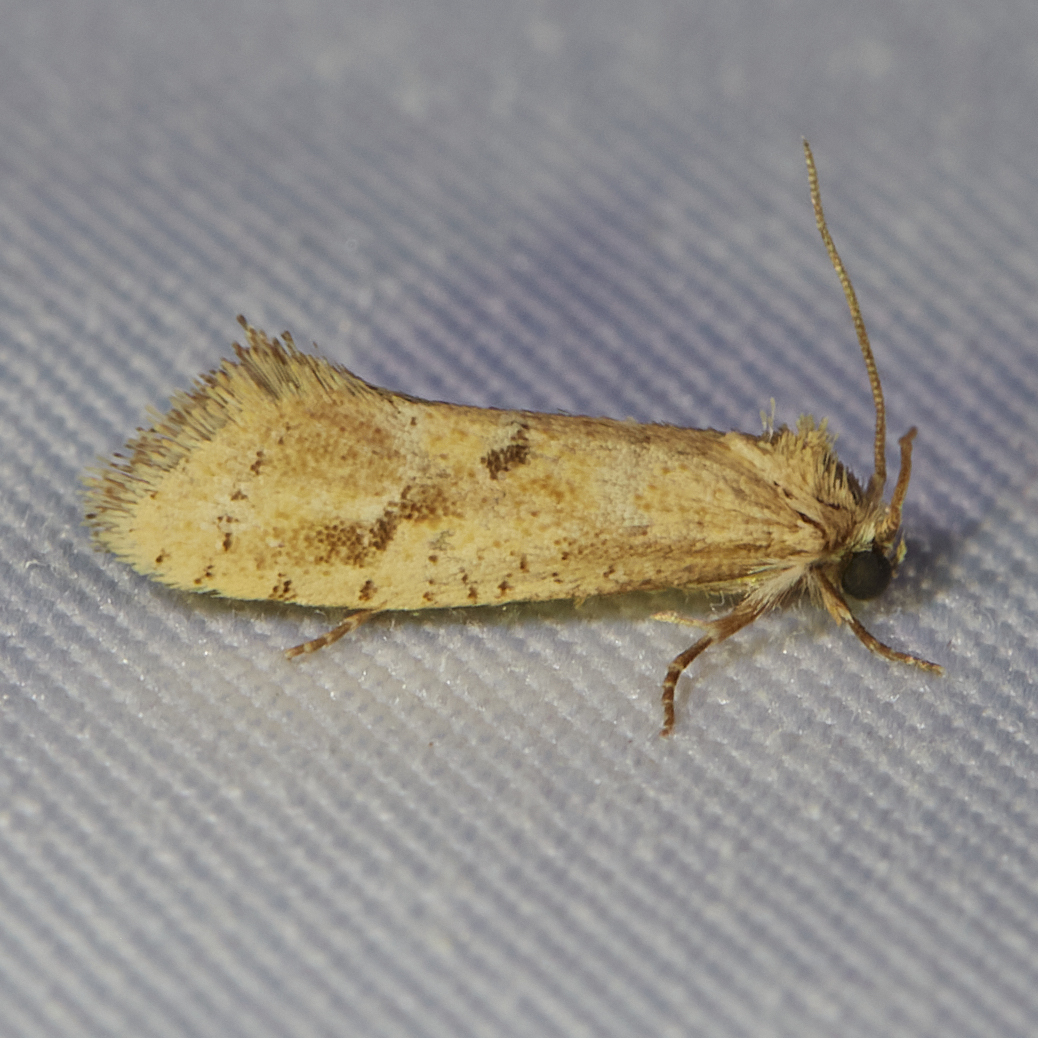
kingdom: Animalia
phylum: Arthropoda
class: Insecta
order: Lepidoptera
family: Tineidae
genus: Acrolophus
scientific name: Acrolophus laticapitana
